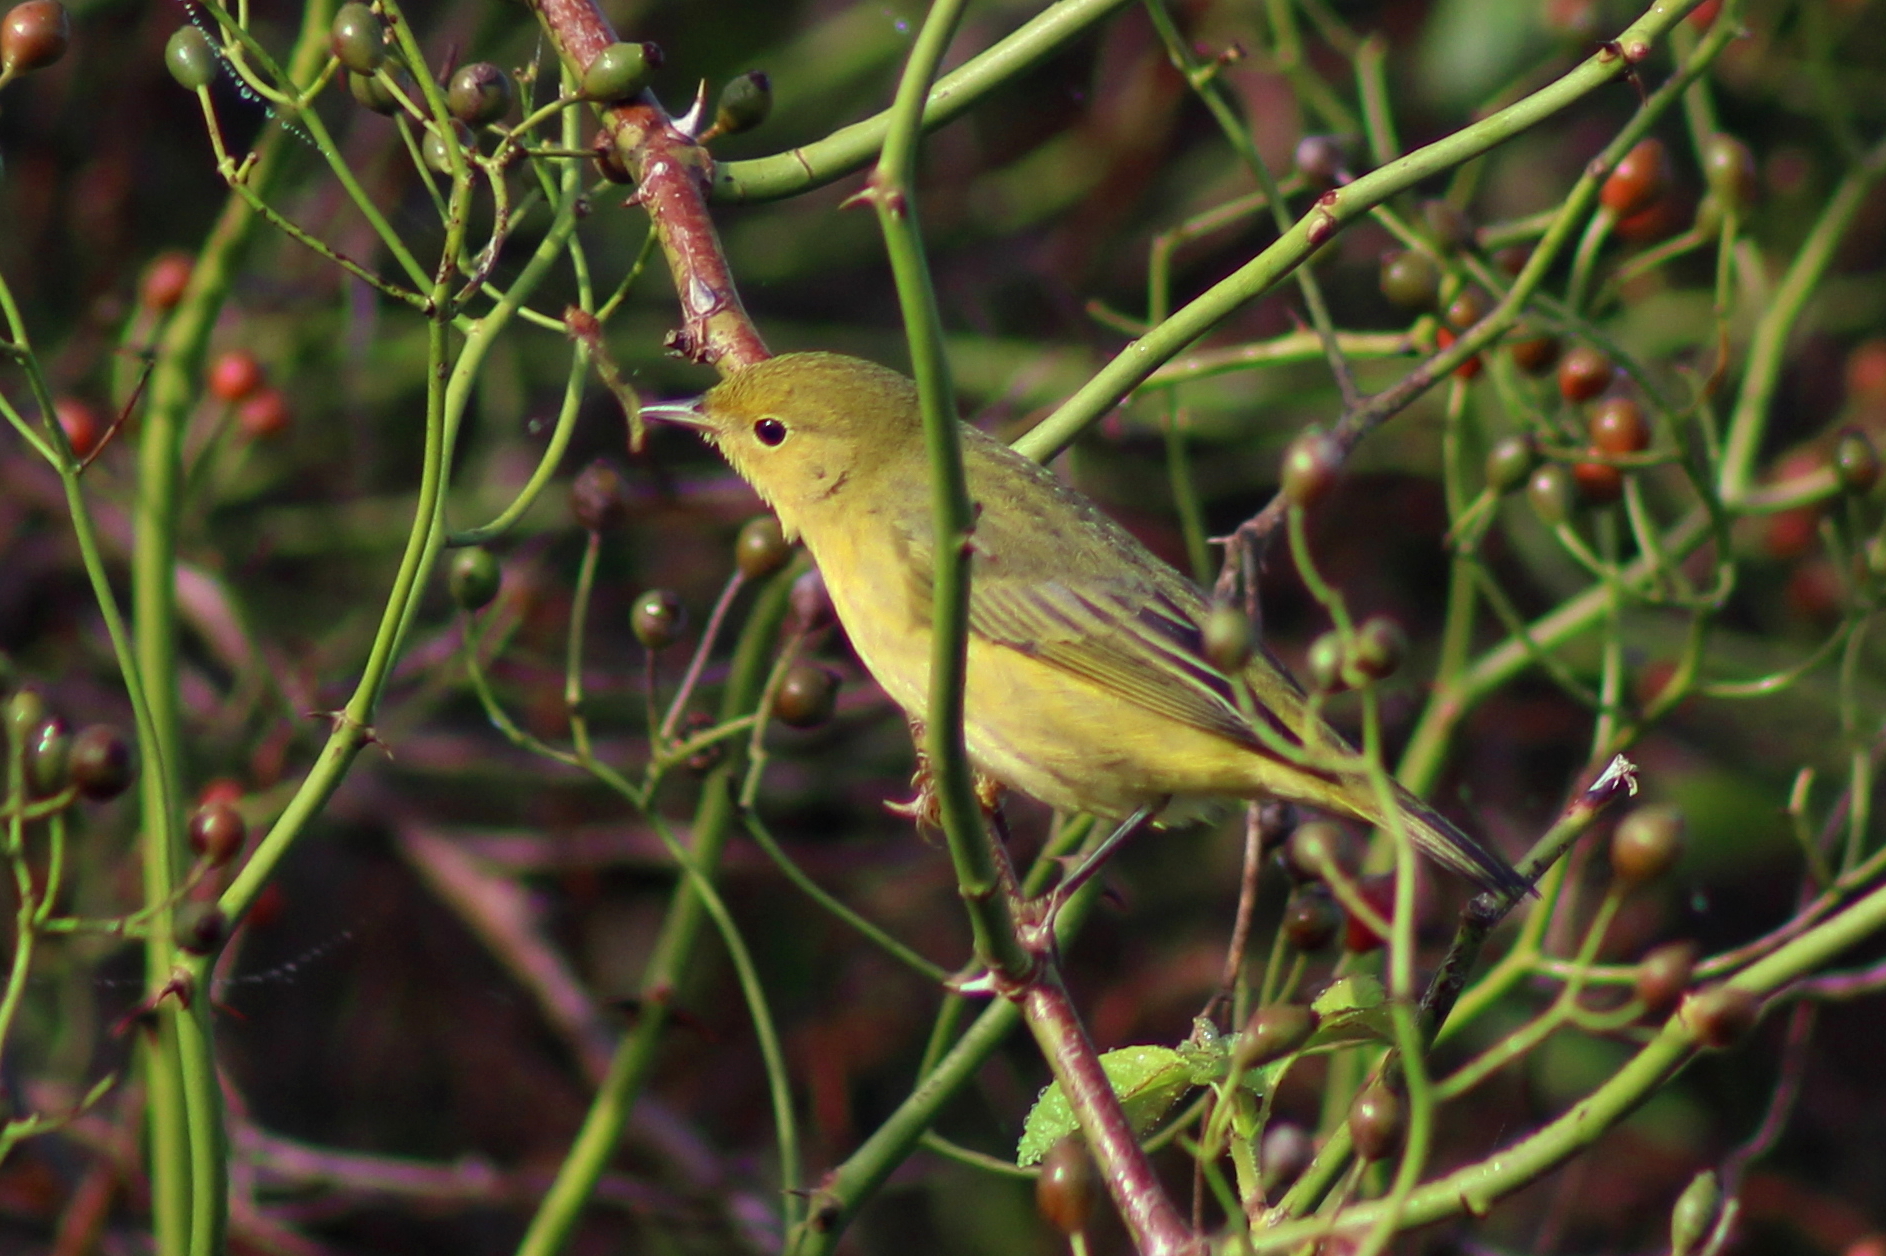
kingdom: Animalia
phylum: Chordata
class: Aves
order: Passeriformes
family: Parulidae
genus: Setophaga
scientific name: Setophaga petechia
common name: Yellow warbler
